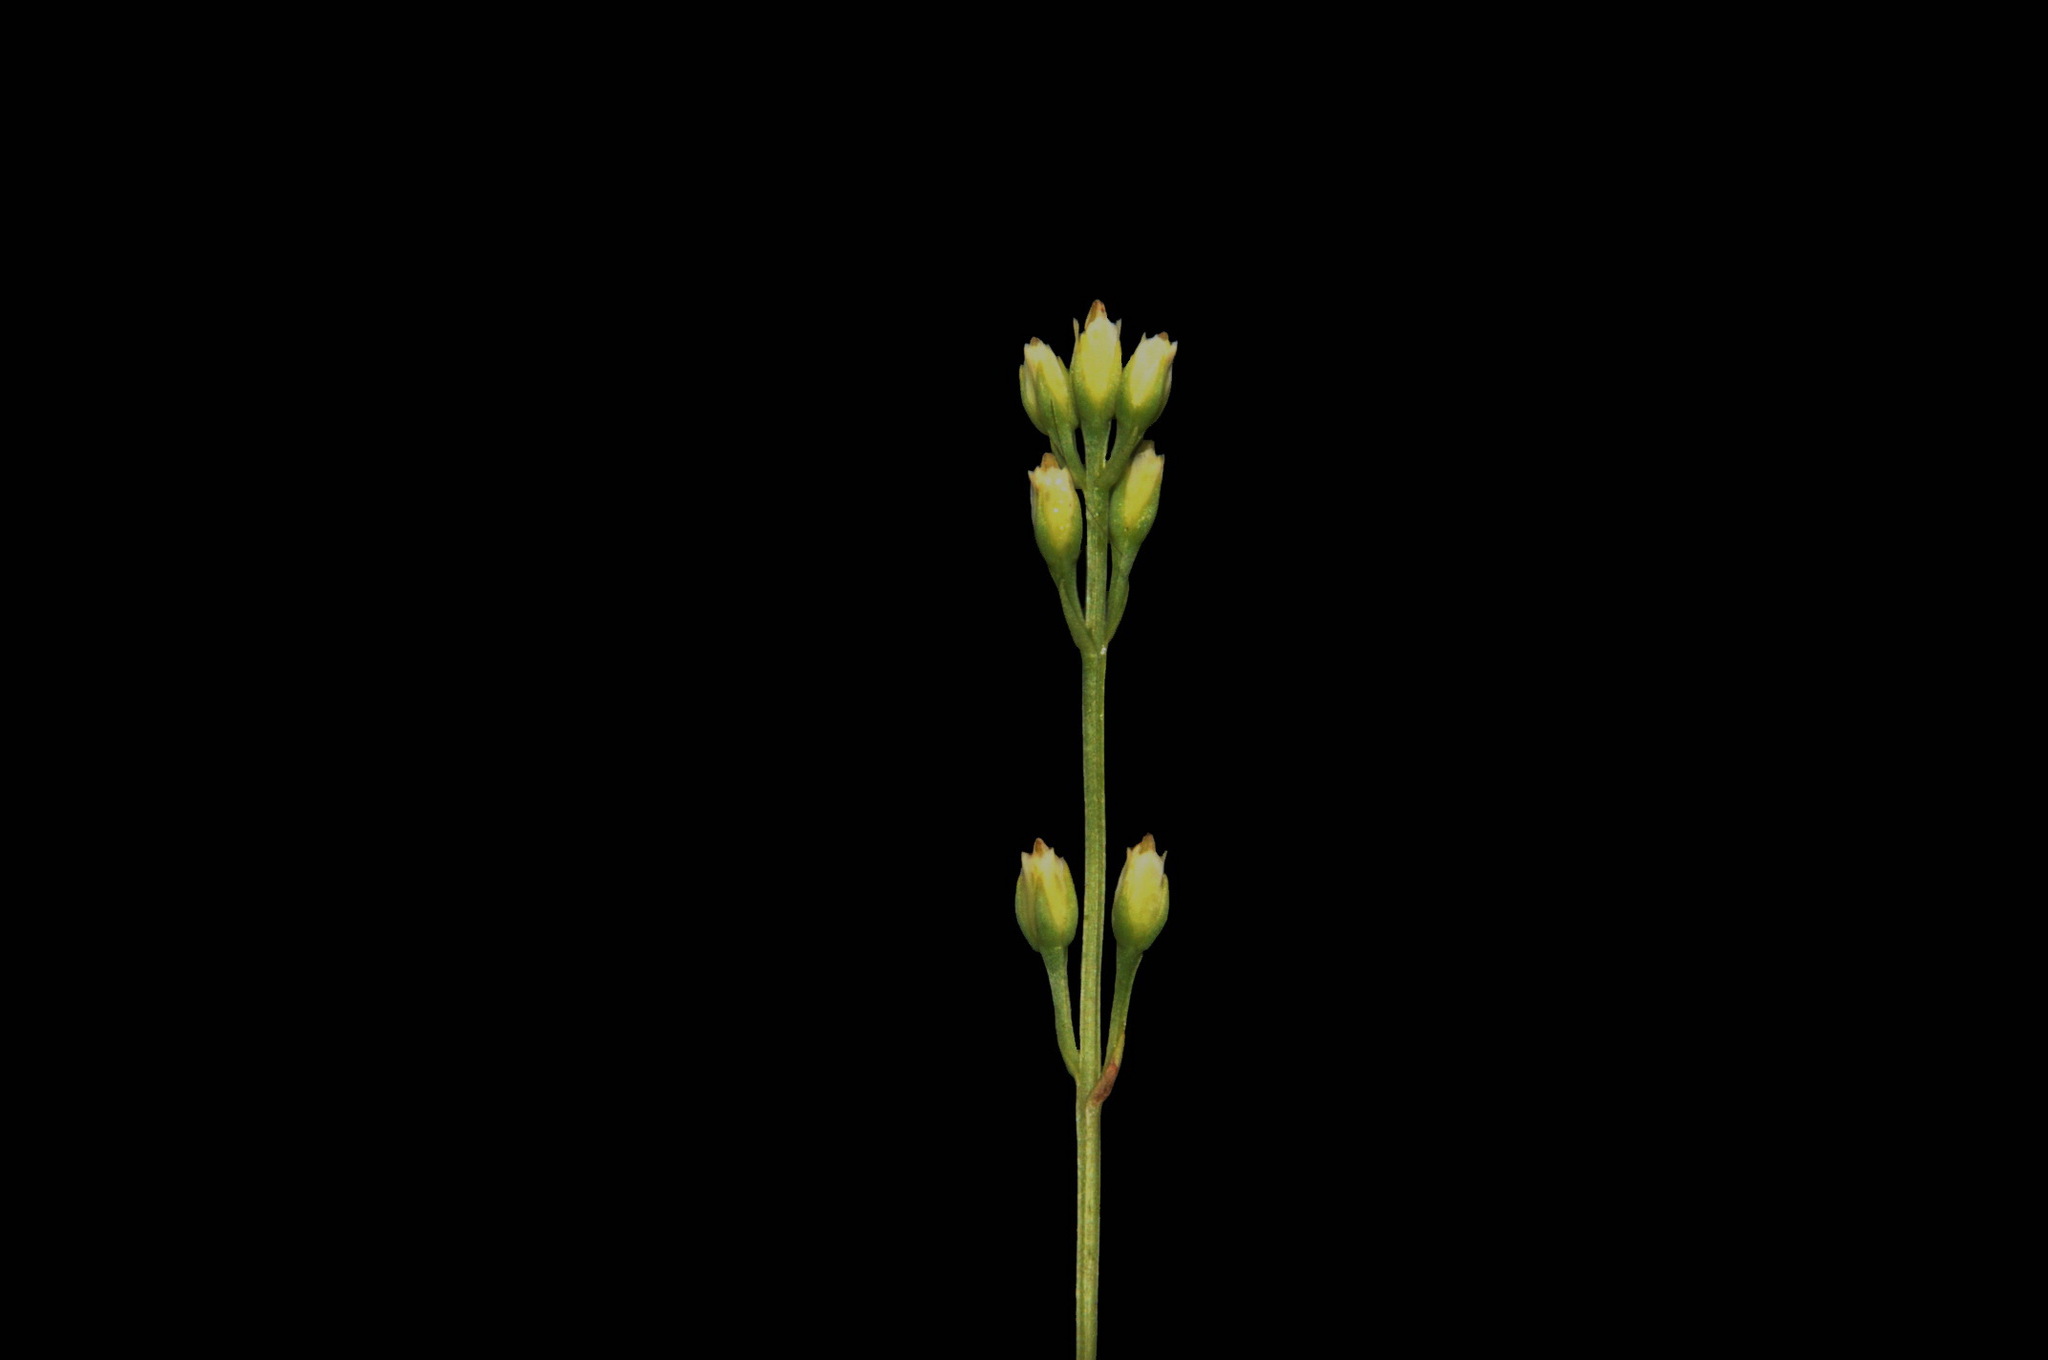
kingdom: Plantae
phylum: Tracheophyta
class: Magnoliopsida
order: Gentianales
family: Gentianaceae
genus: Bartonia
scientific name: Bartonia virginica
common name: Yellow bartonia
